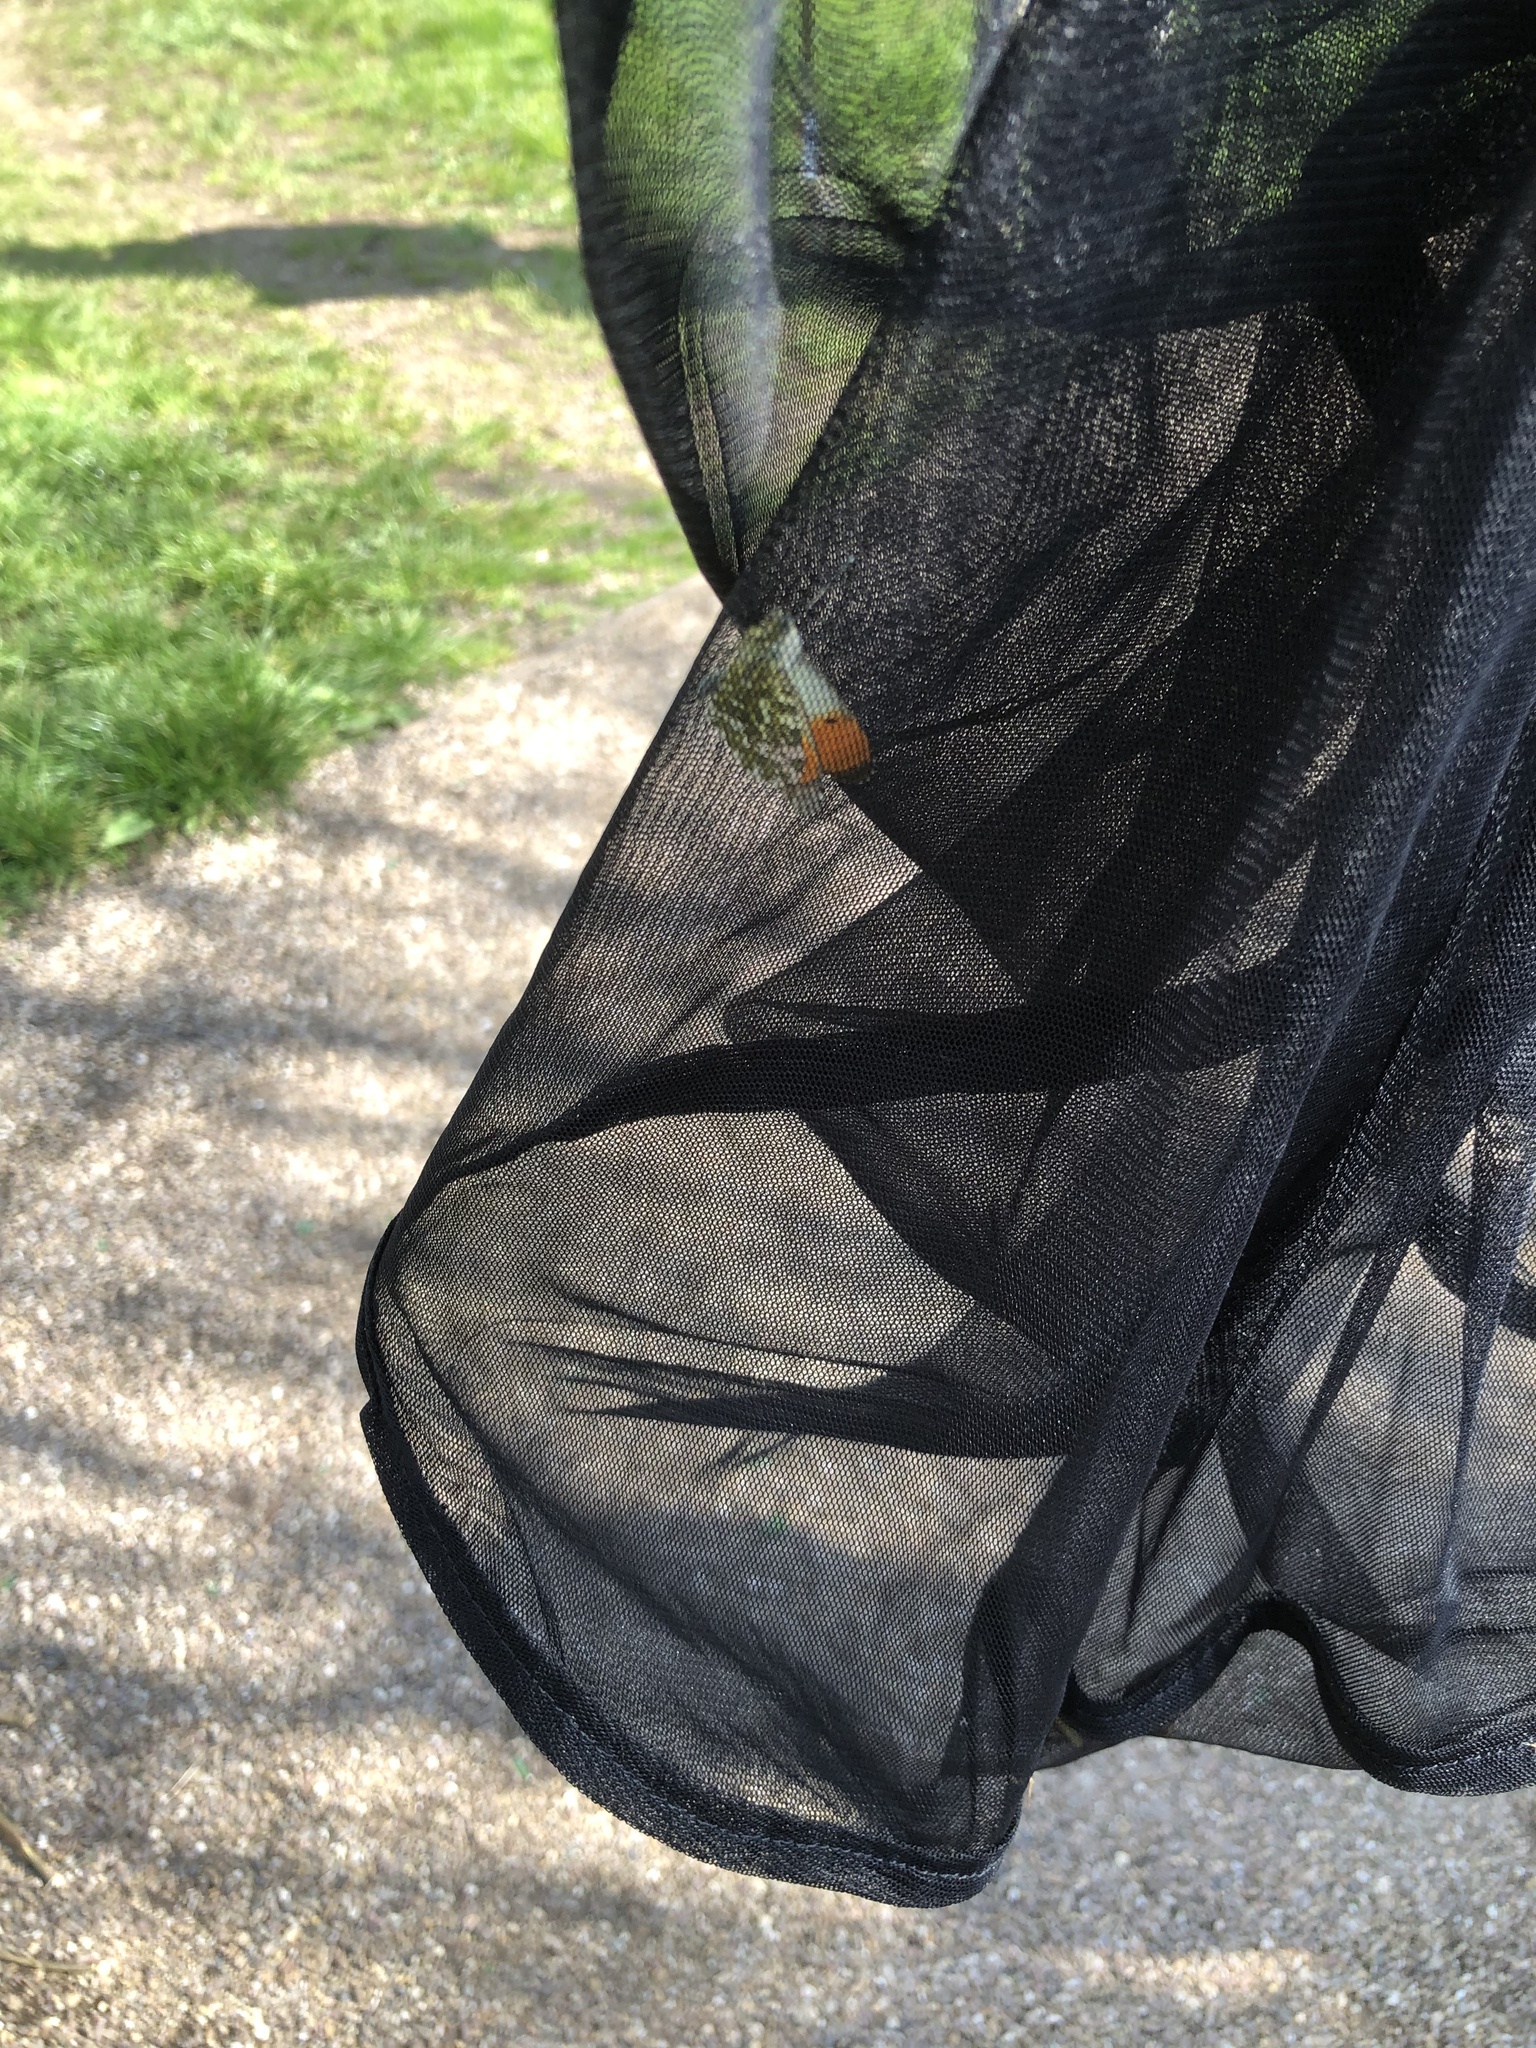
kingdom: Animalia
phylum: Arthropoda
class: Insecta
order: Lepidoptera
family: Pieridae
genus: Anthocharis
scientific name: Anthocharis cardamines
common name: Orange-tip
